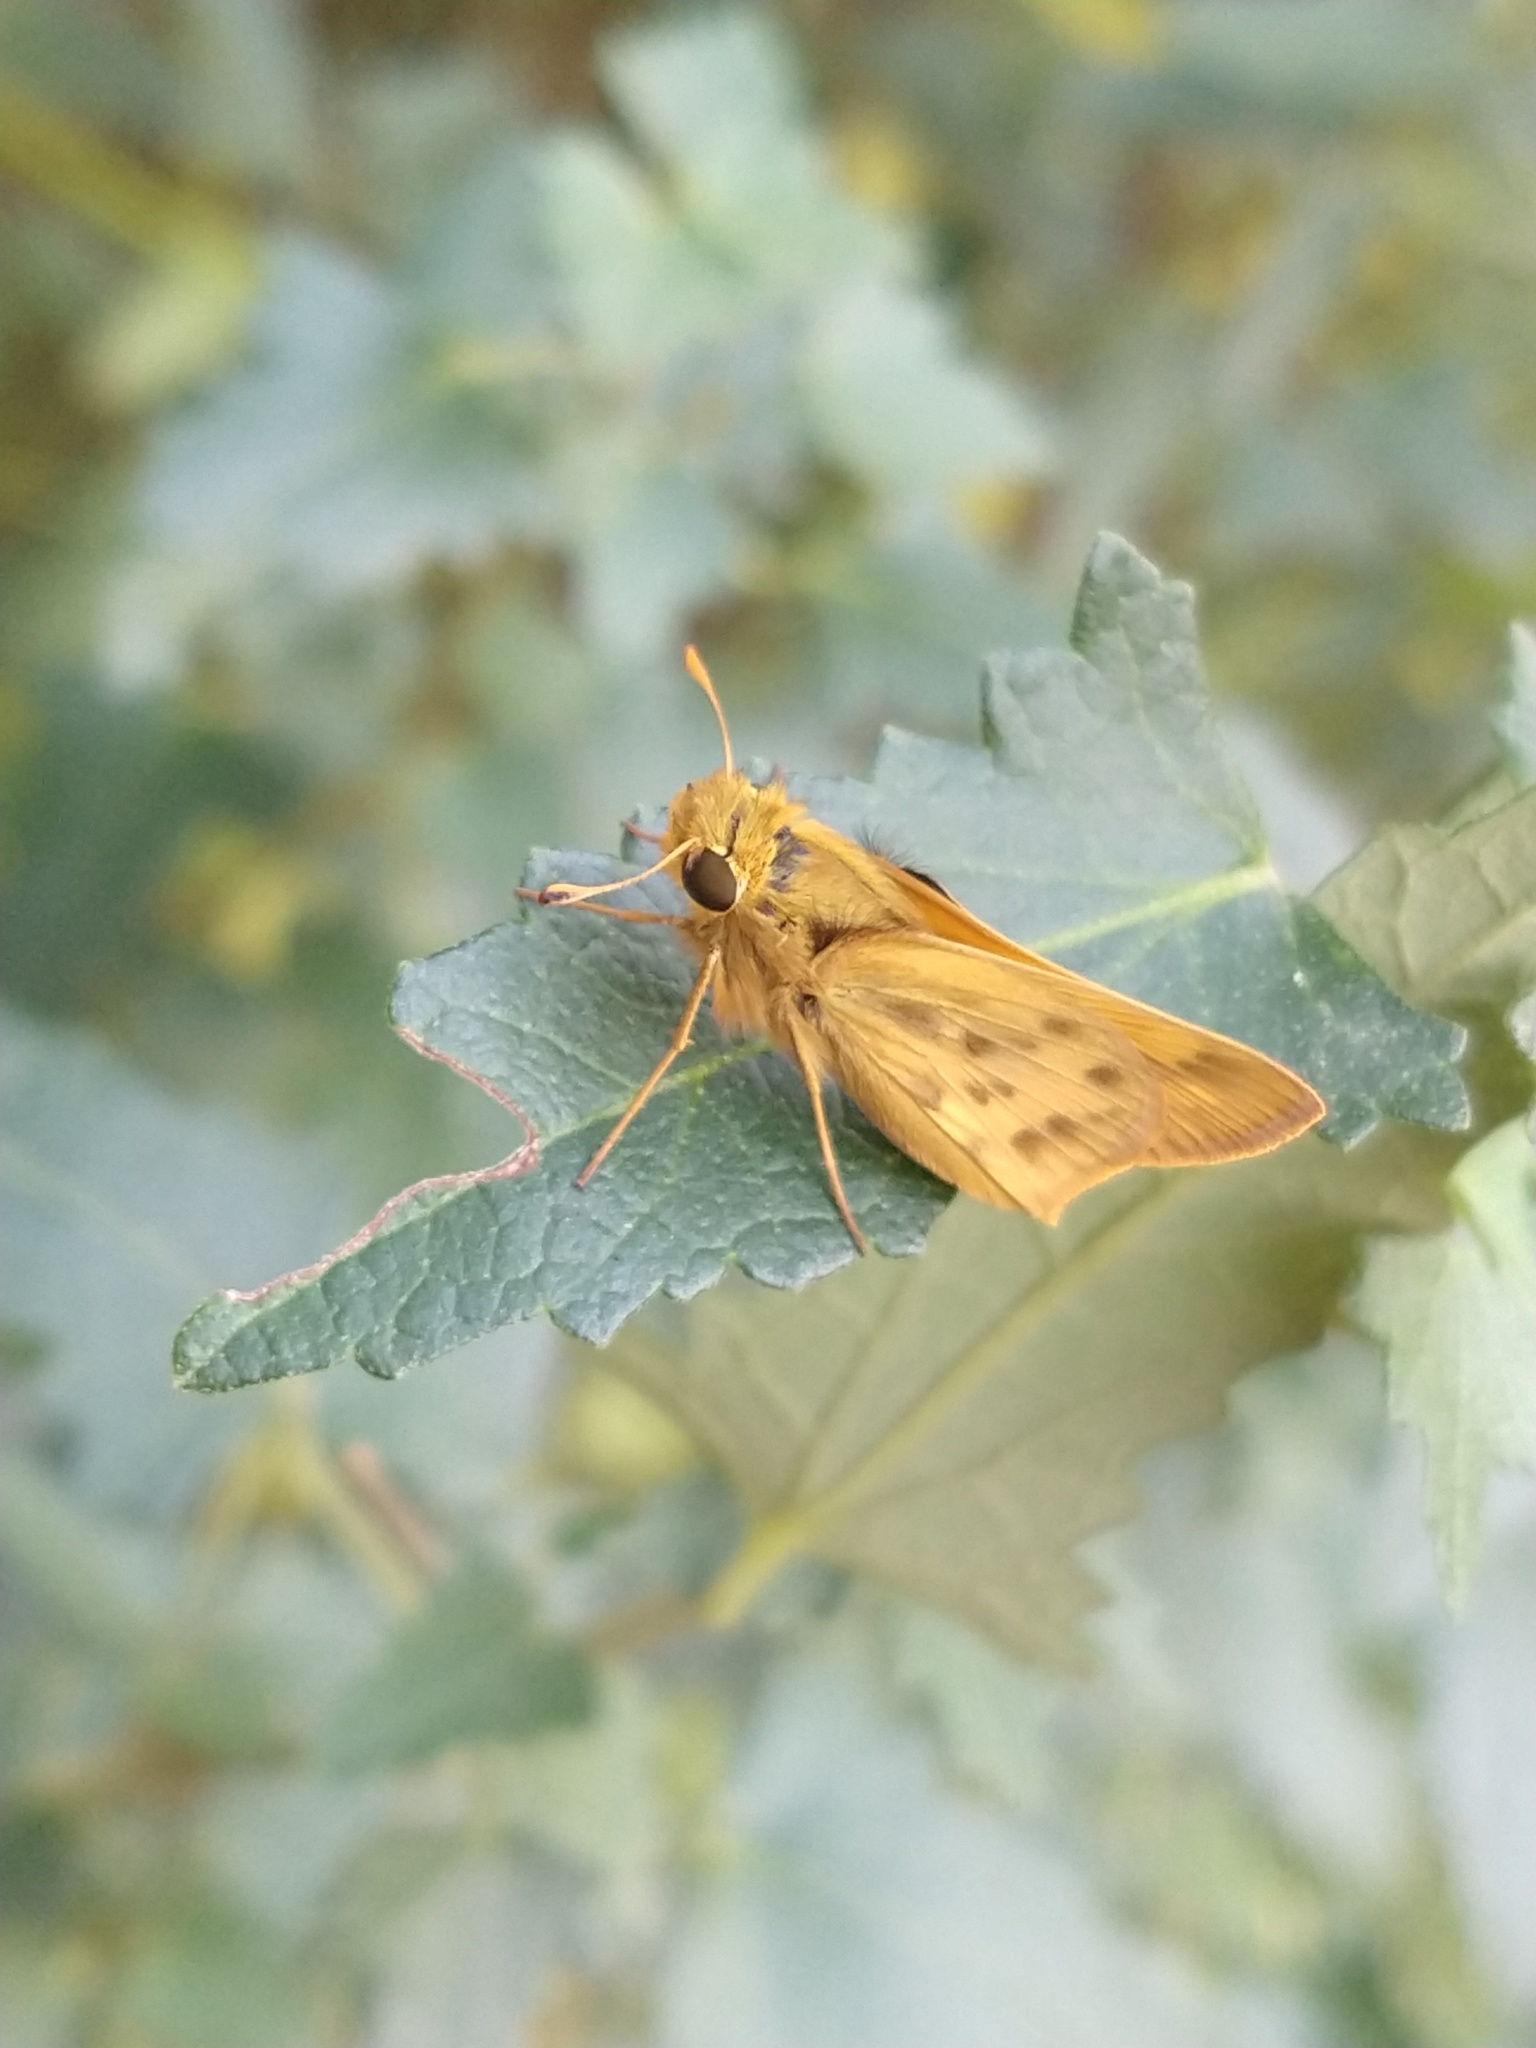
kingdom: Animalia
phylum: Arthropoda
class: Insecta
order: Lepidoptera
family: Hesperiidae
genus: Hylephila
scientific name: Hylephila phyleus
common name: Fiery skipper
